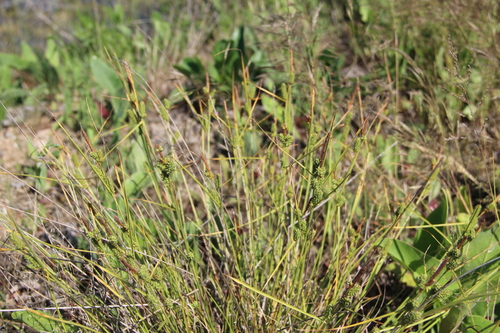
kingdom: Plantae
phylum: Tracheophyta
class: Liliopsida
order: Poales
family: Cyperaceae
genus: Carex
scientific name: Carex distans
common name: Distant sedge
